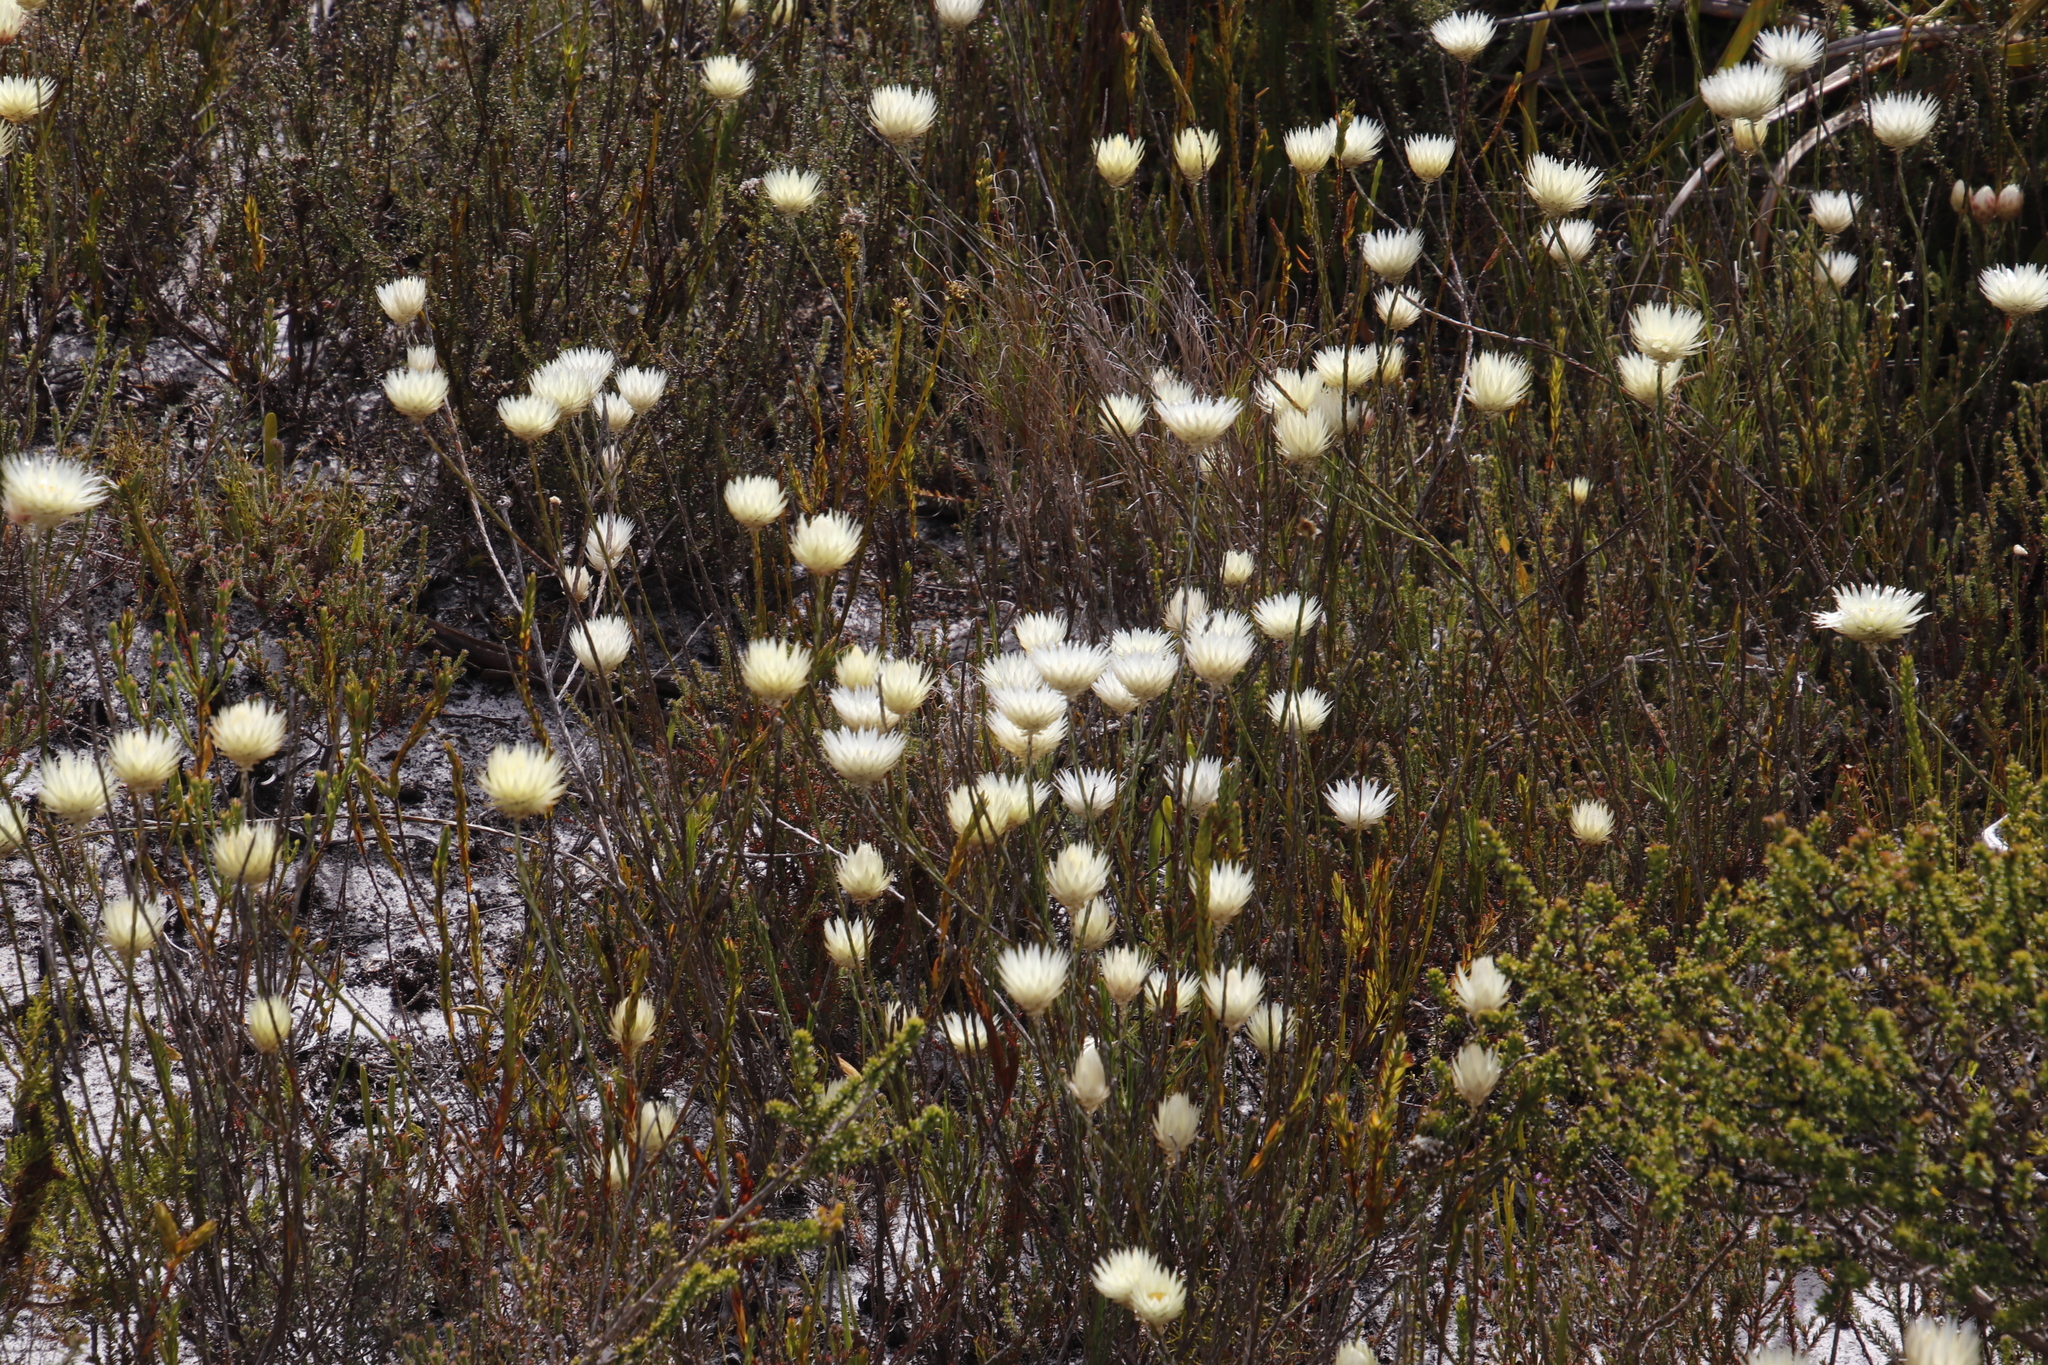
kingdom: Plantae
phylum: Tracheophyta
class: Magnoliopsida
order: Asterales
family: Asteraceae
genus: Edmondia
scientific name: Edmondia sesamoides
